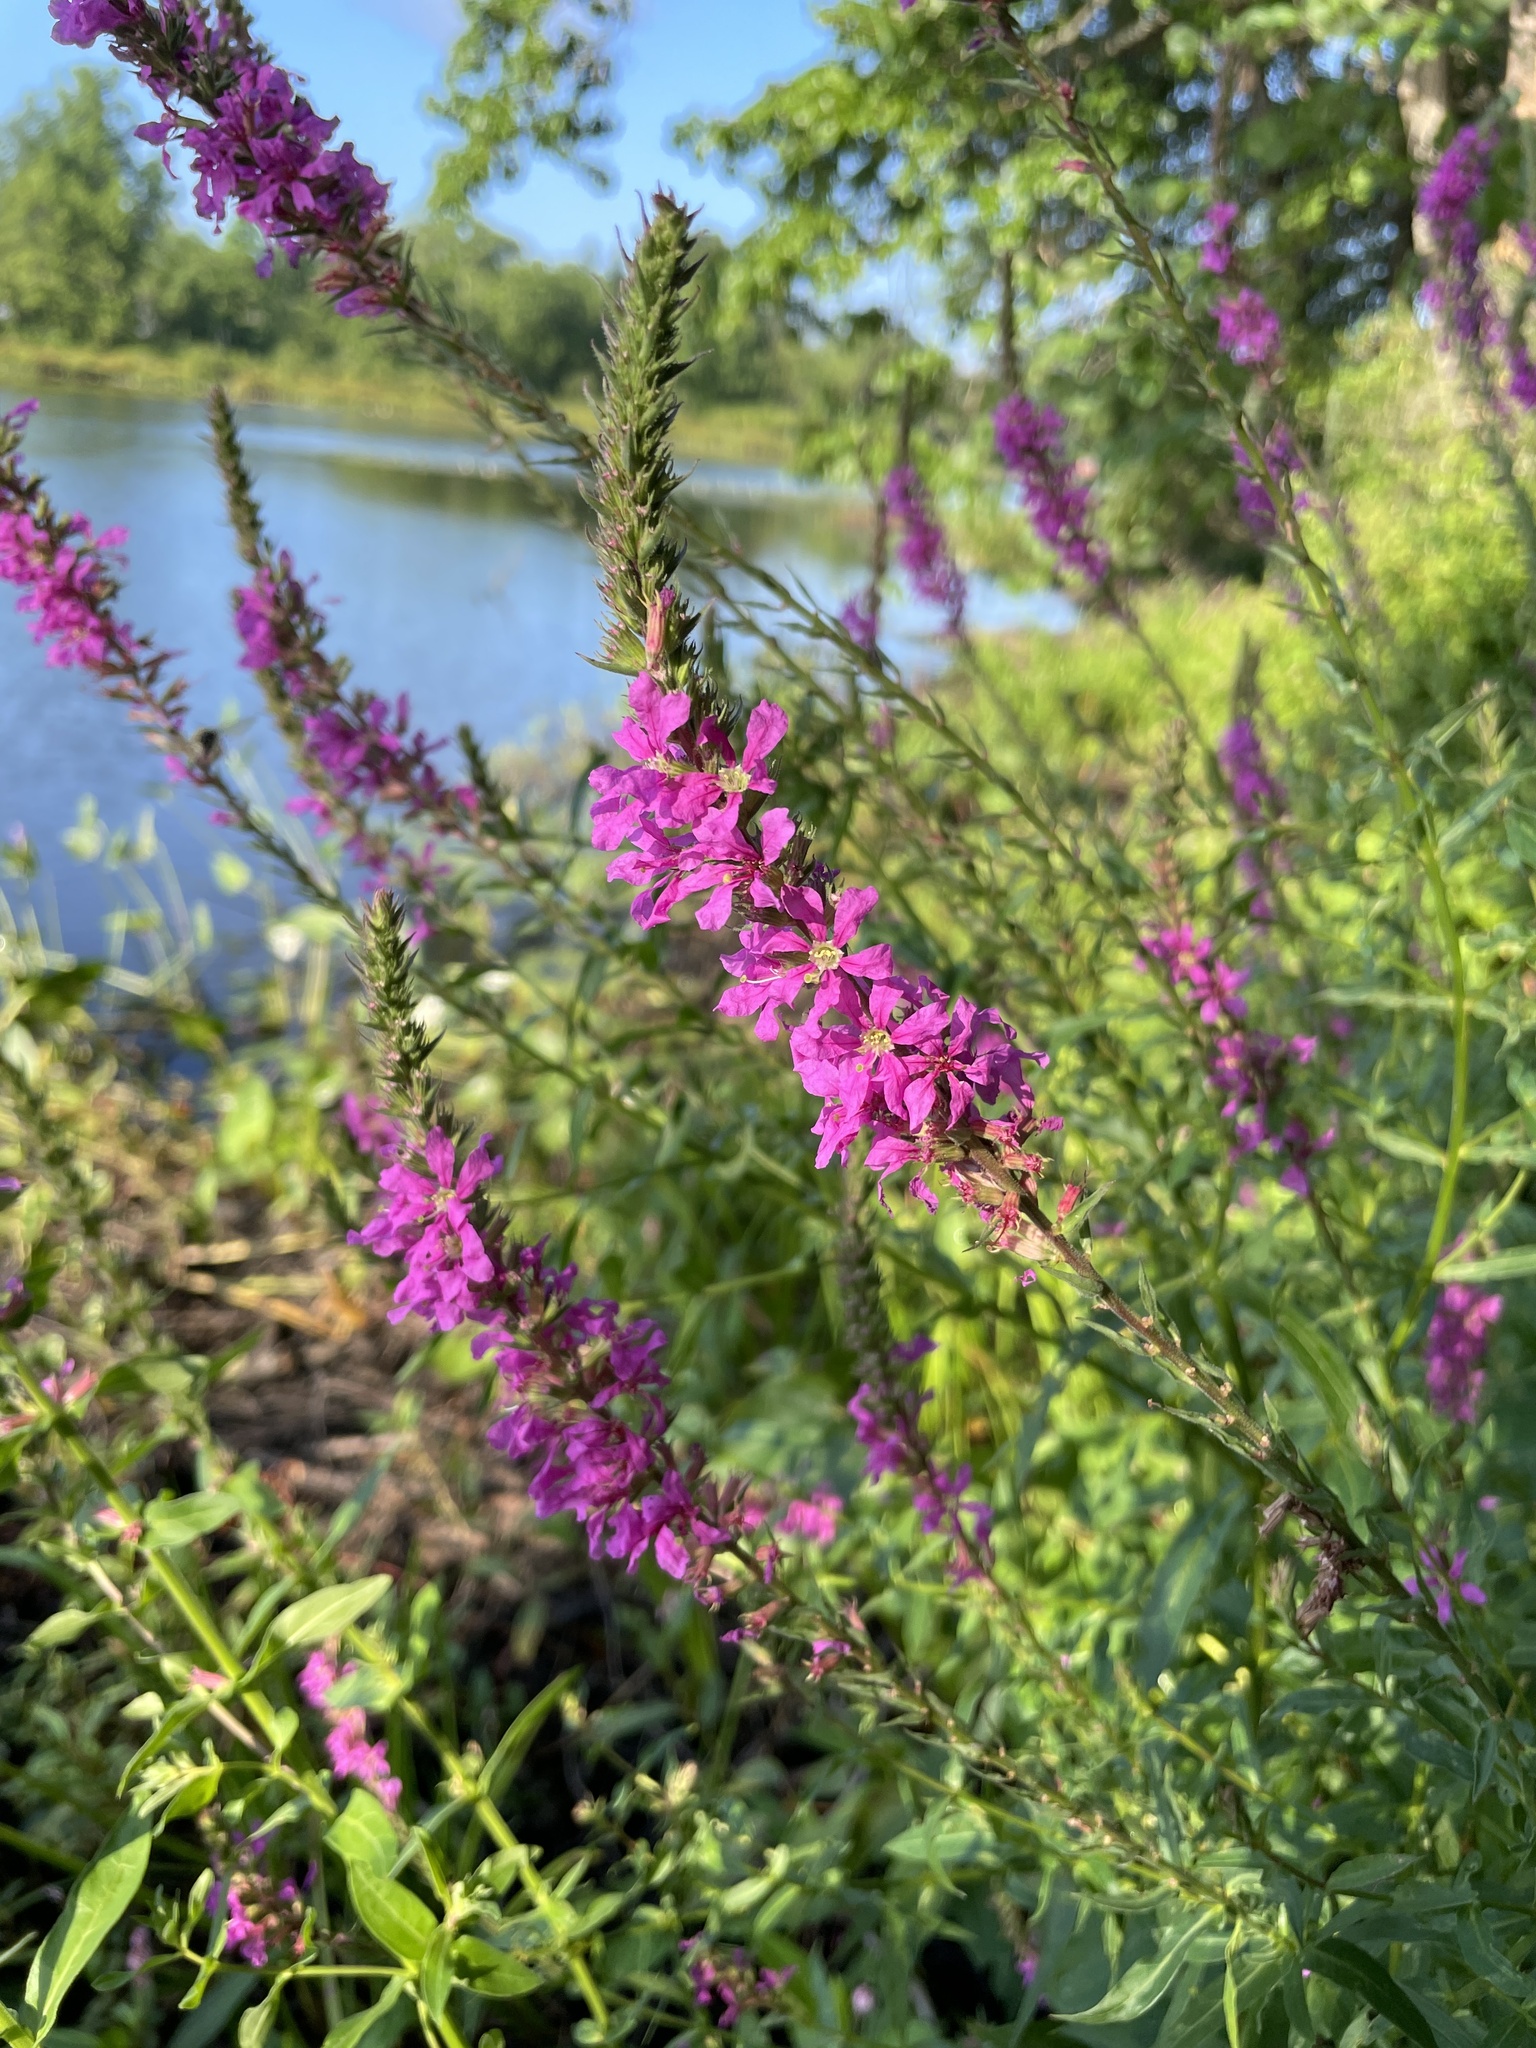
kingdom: Plantae
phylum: Tracheophyta
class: Magnoliopsida
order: Myrtales
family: Lythraceae
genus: Lythrum
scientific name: Lythrum salicaria
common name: Purple loosestrife
